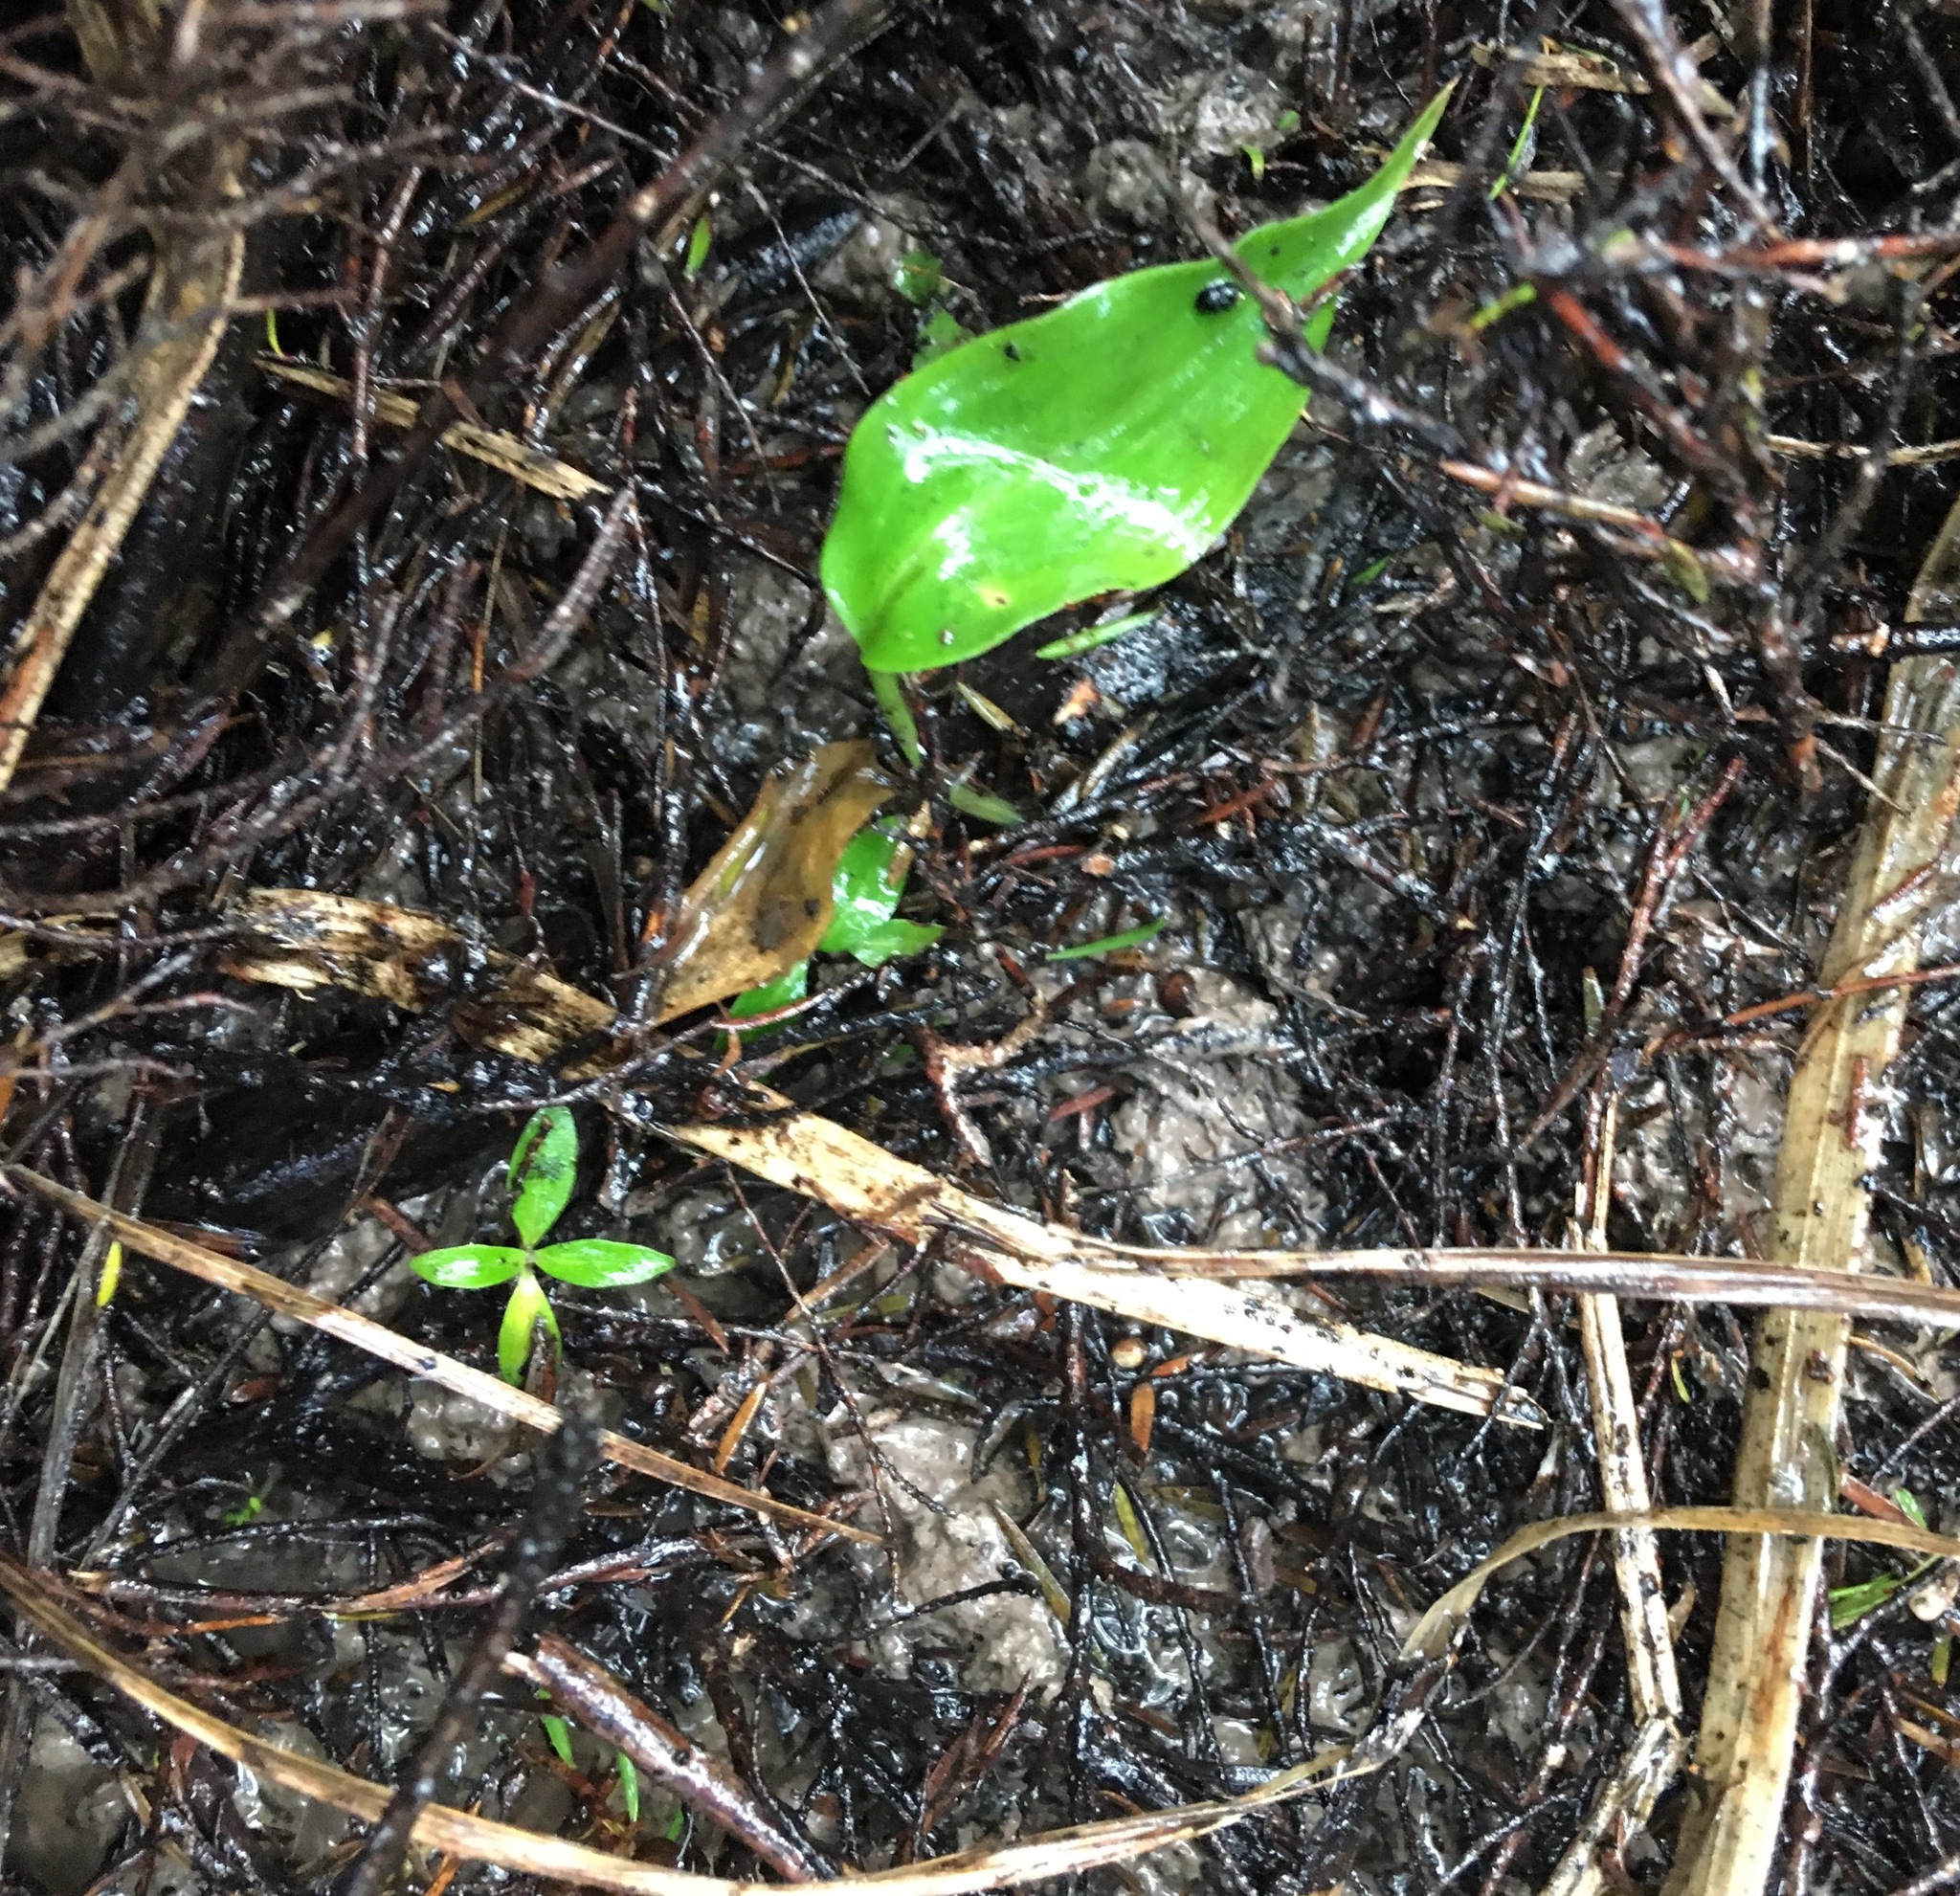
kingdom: Plantae
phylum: Tracheophyta
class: Liliopsida
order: Zingiberales
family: Zingiberaceae
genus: Hedychium
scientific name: Hedychium gardnerianum
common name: Himalayan ginger
